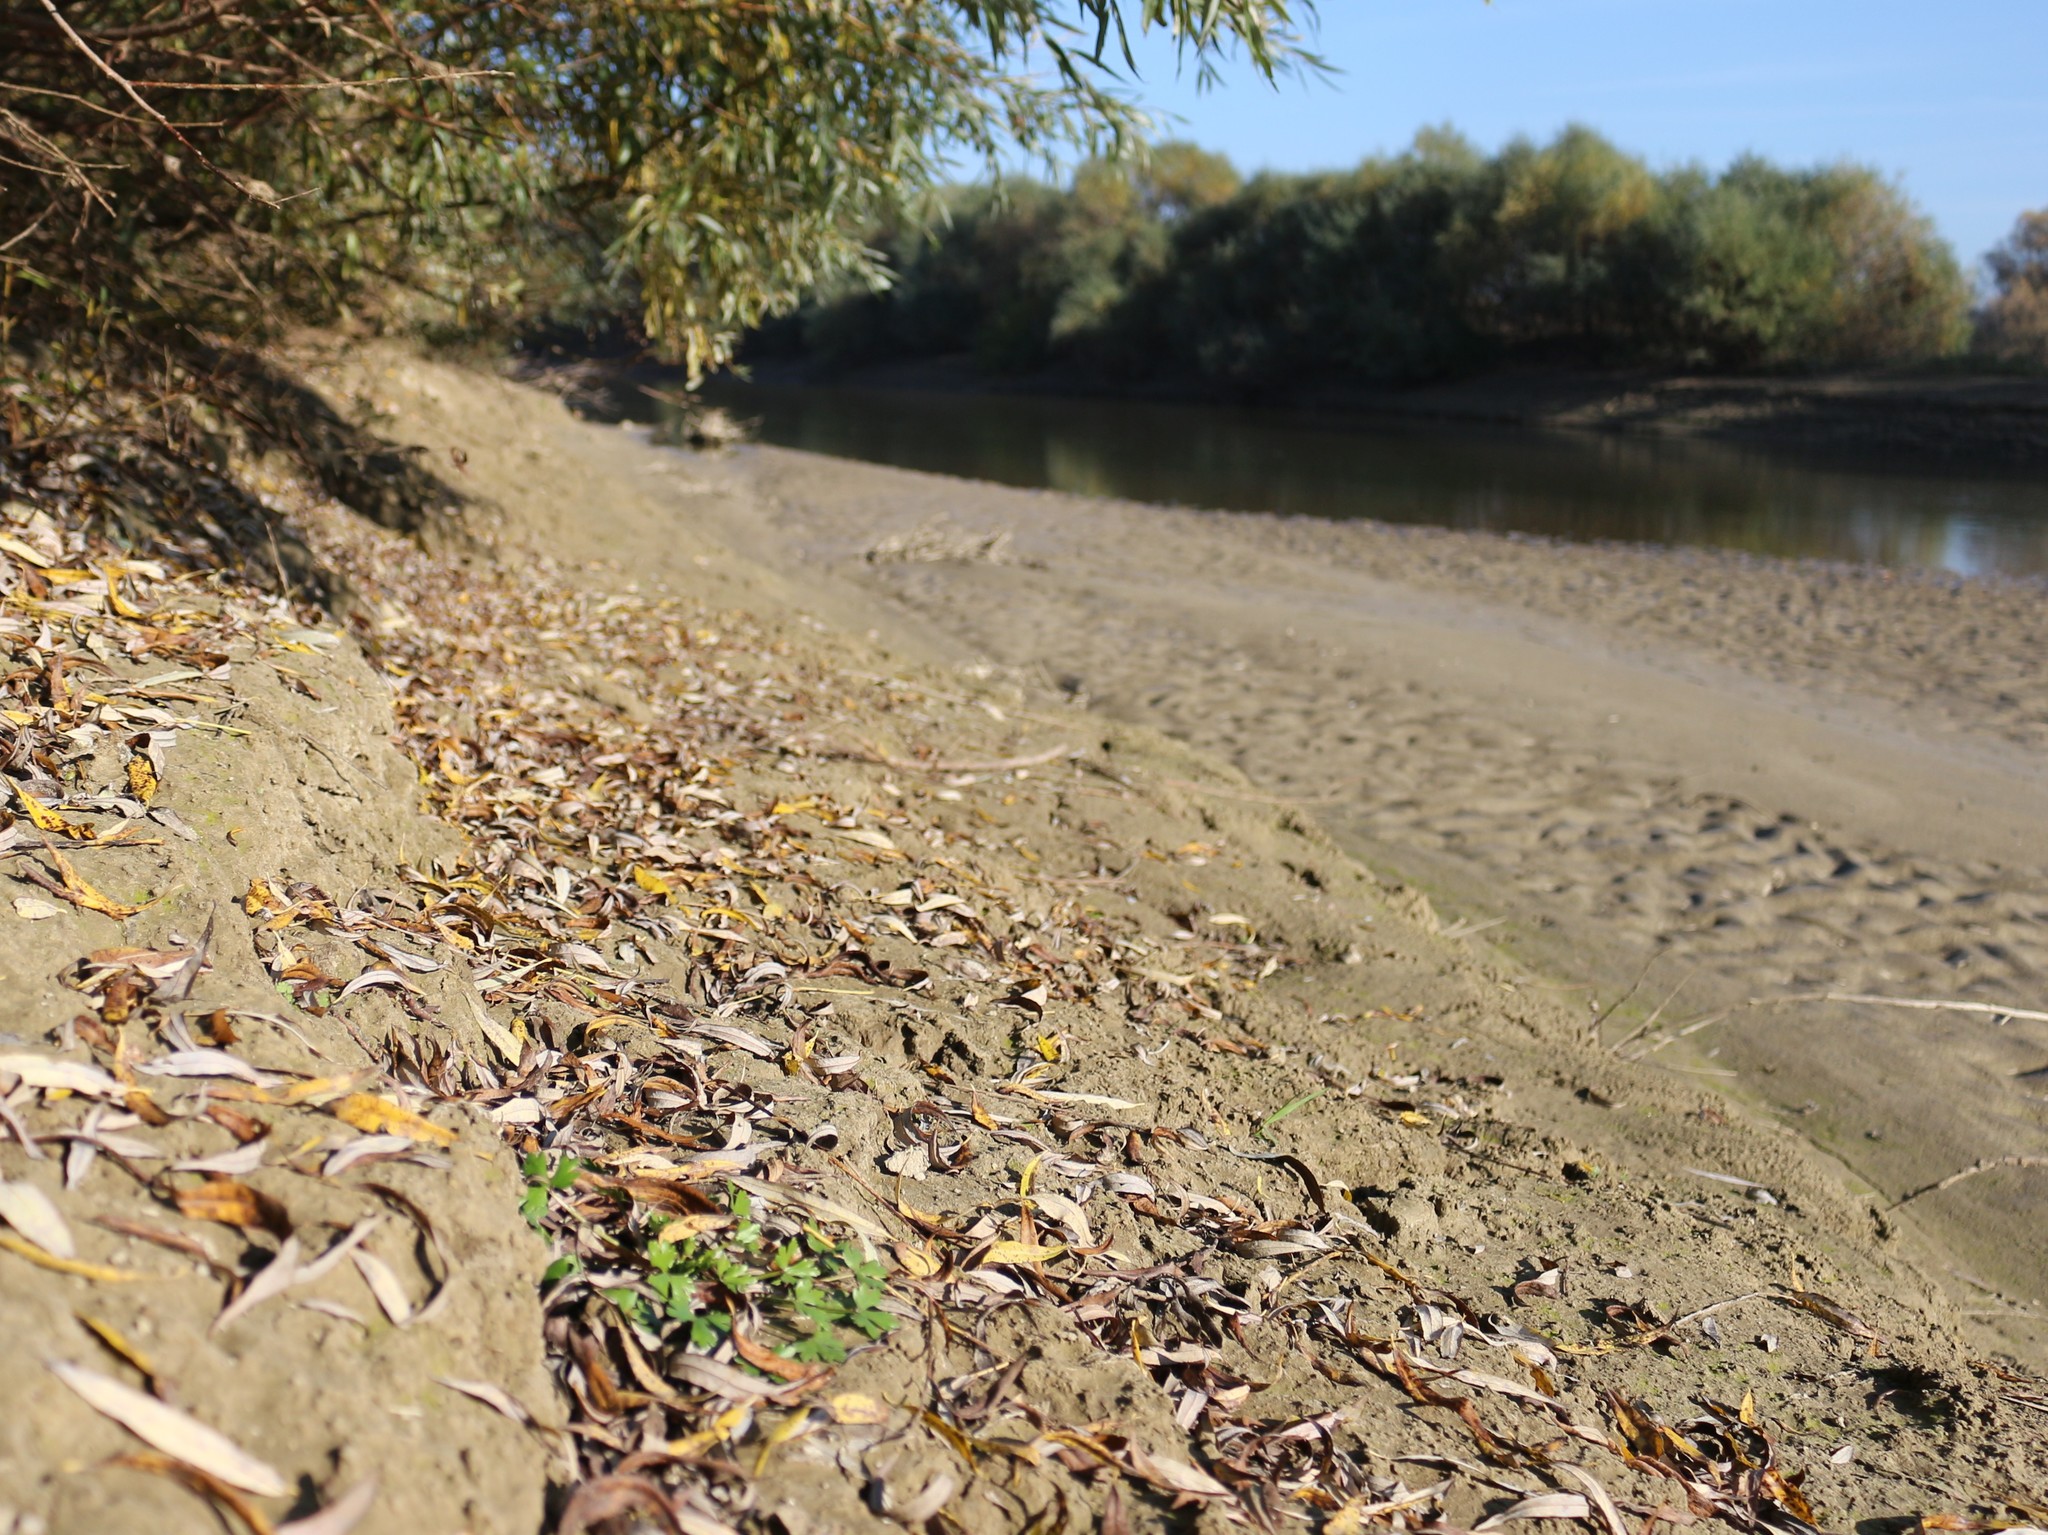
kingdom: Plantae
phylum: Tracheophyta
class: Magnoliopsida
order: Ranunculales
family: Ranunculaceae
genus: Ranunculus
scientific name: Ranunculus sceleratus
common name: Celery-leaved buttercup
